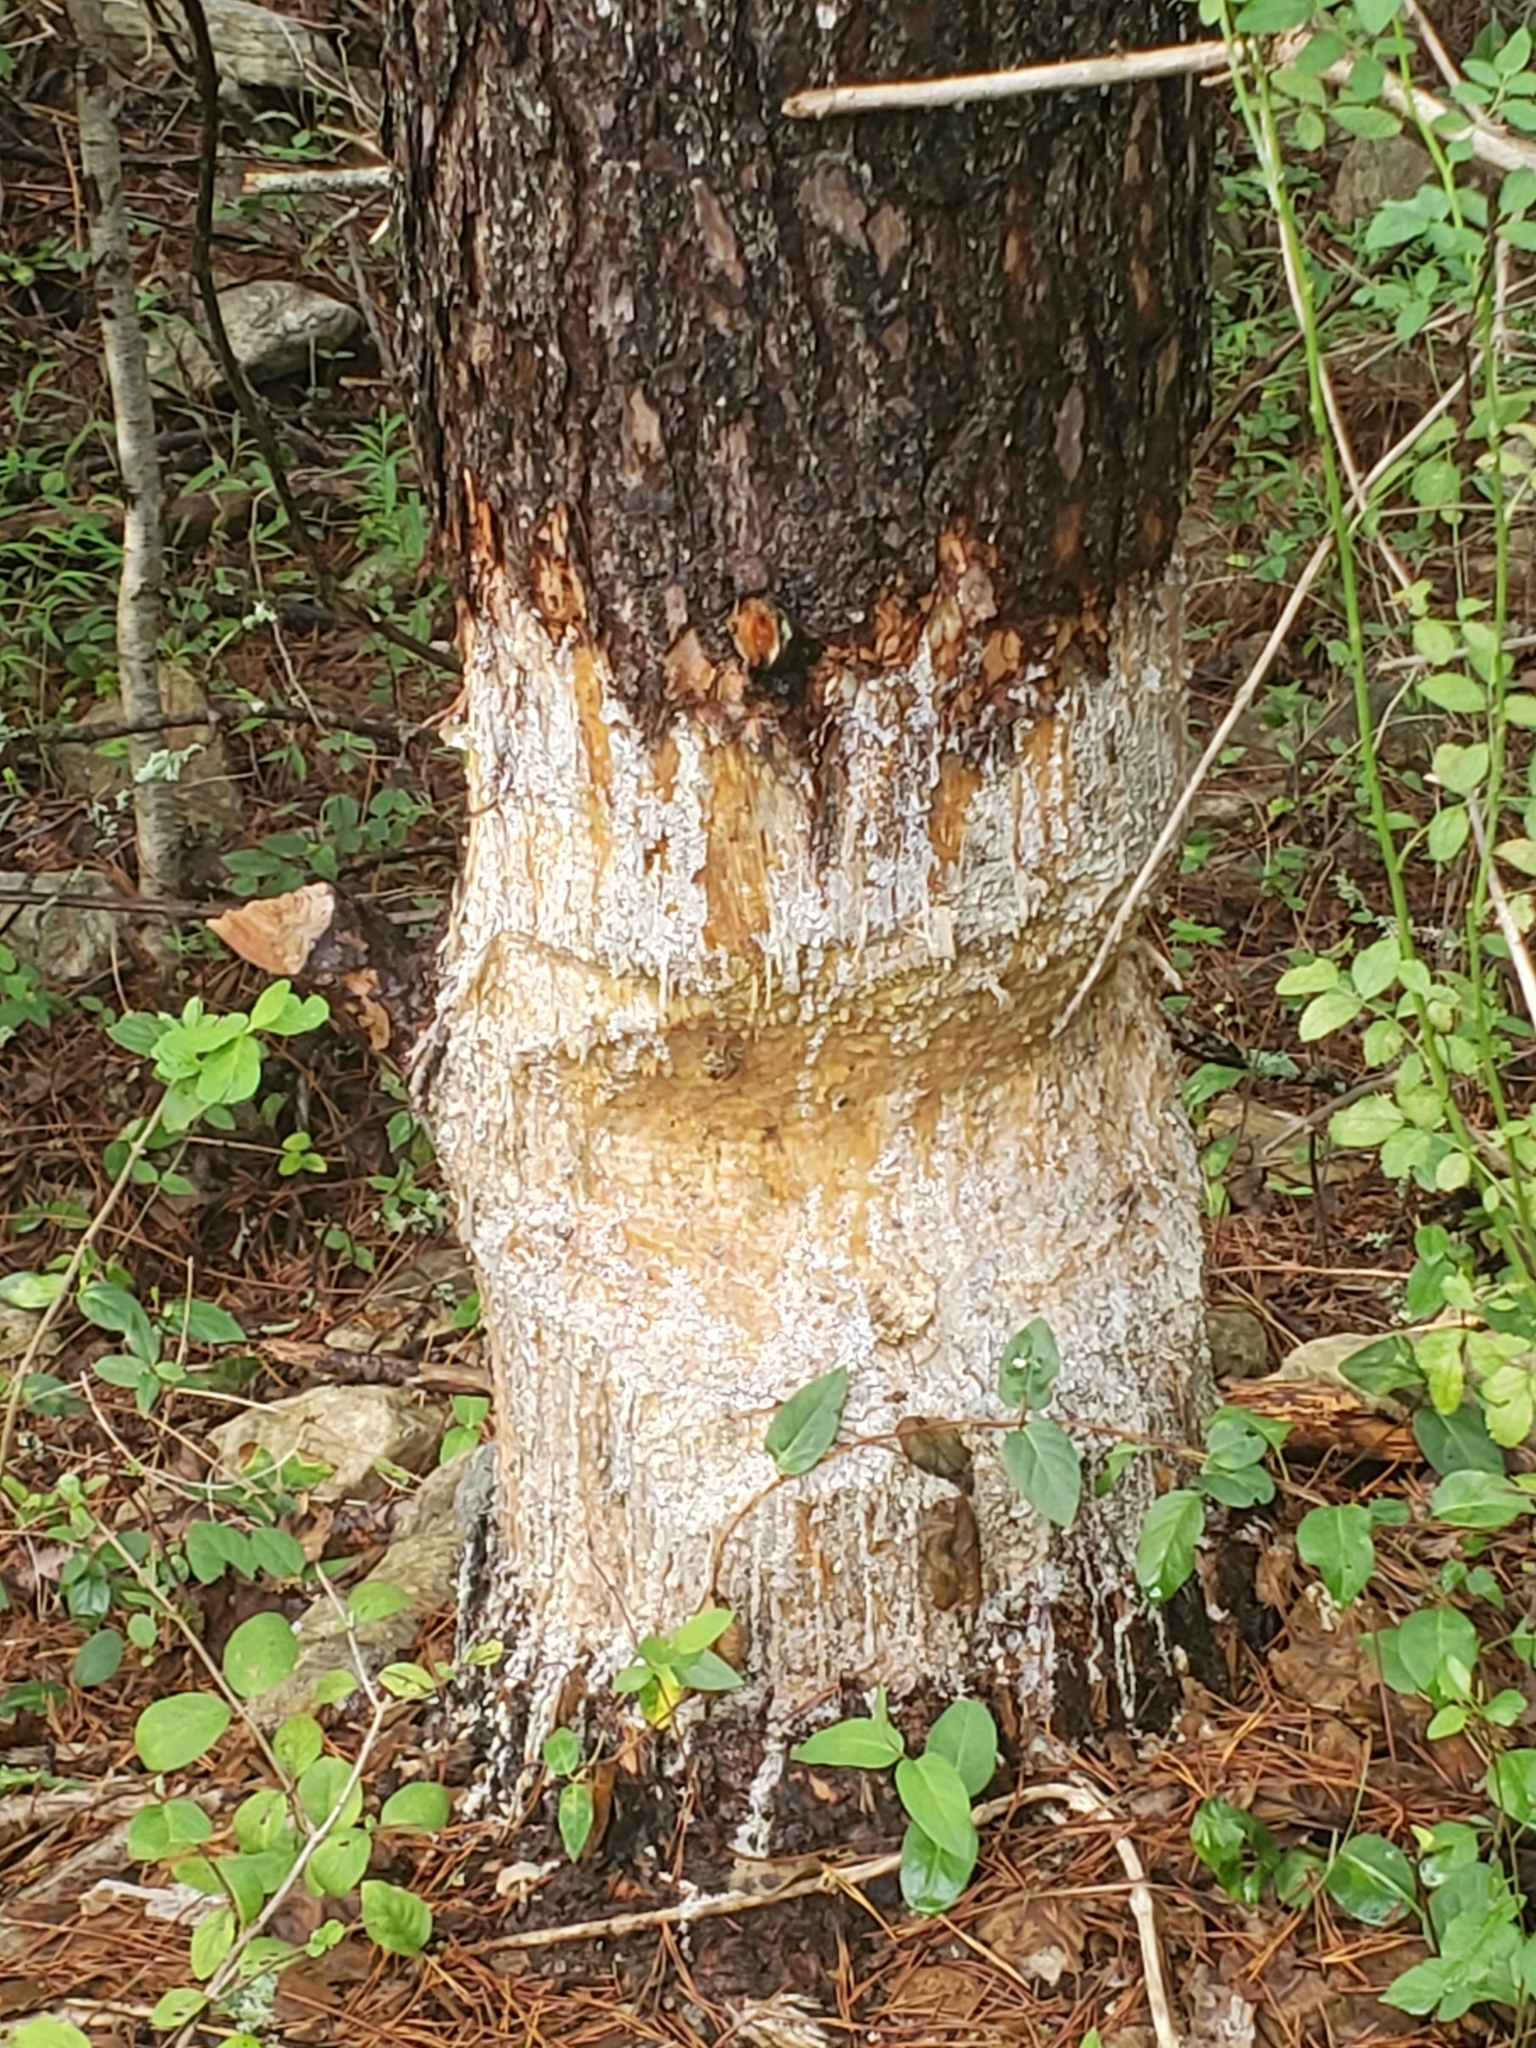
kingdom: Animalia
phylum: Chordata
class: Mammalia
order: Rodentia
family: Castoridae
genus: Castor
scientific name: Castor canadensis
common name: American beaver
